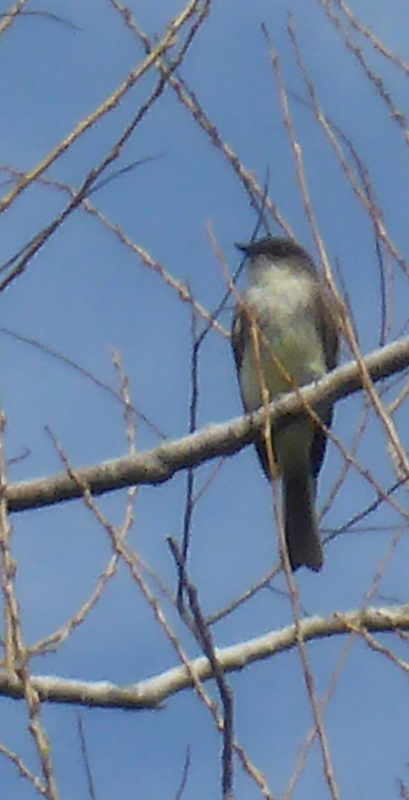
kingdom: Animalia
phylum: Chordata
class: Aves
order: Passeriformes
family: Tyrannidae
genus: Sayornis
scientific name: Sayornis phoebe
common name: Eastern phoebe
